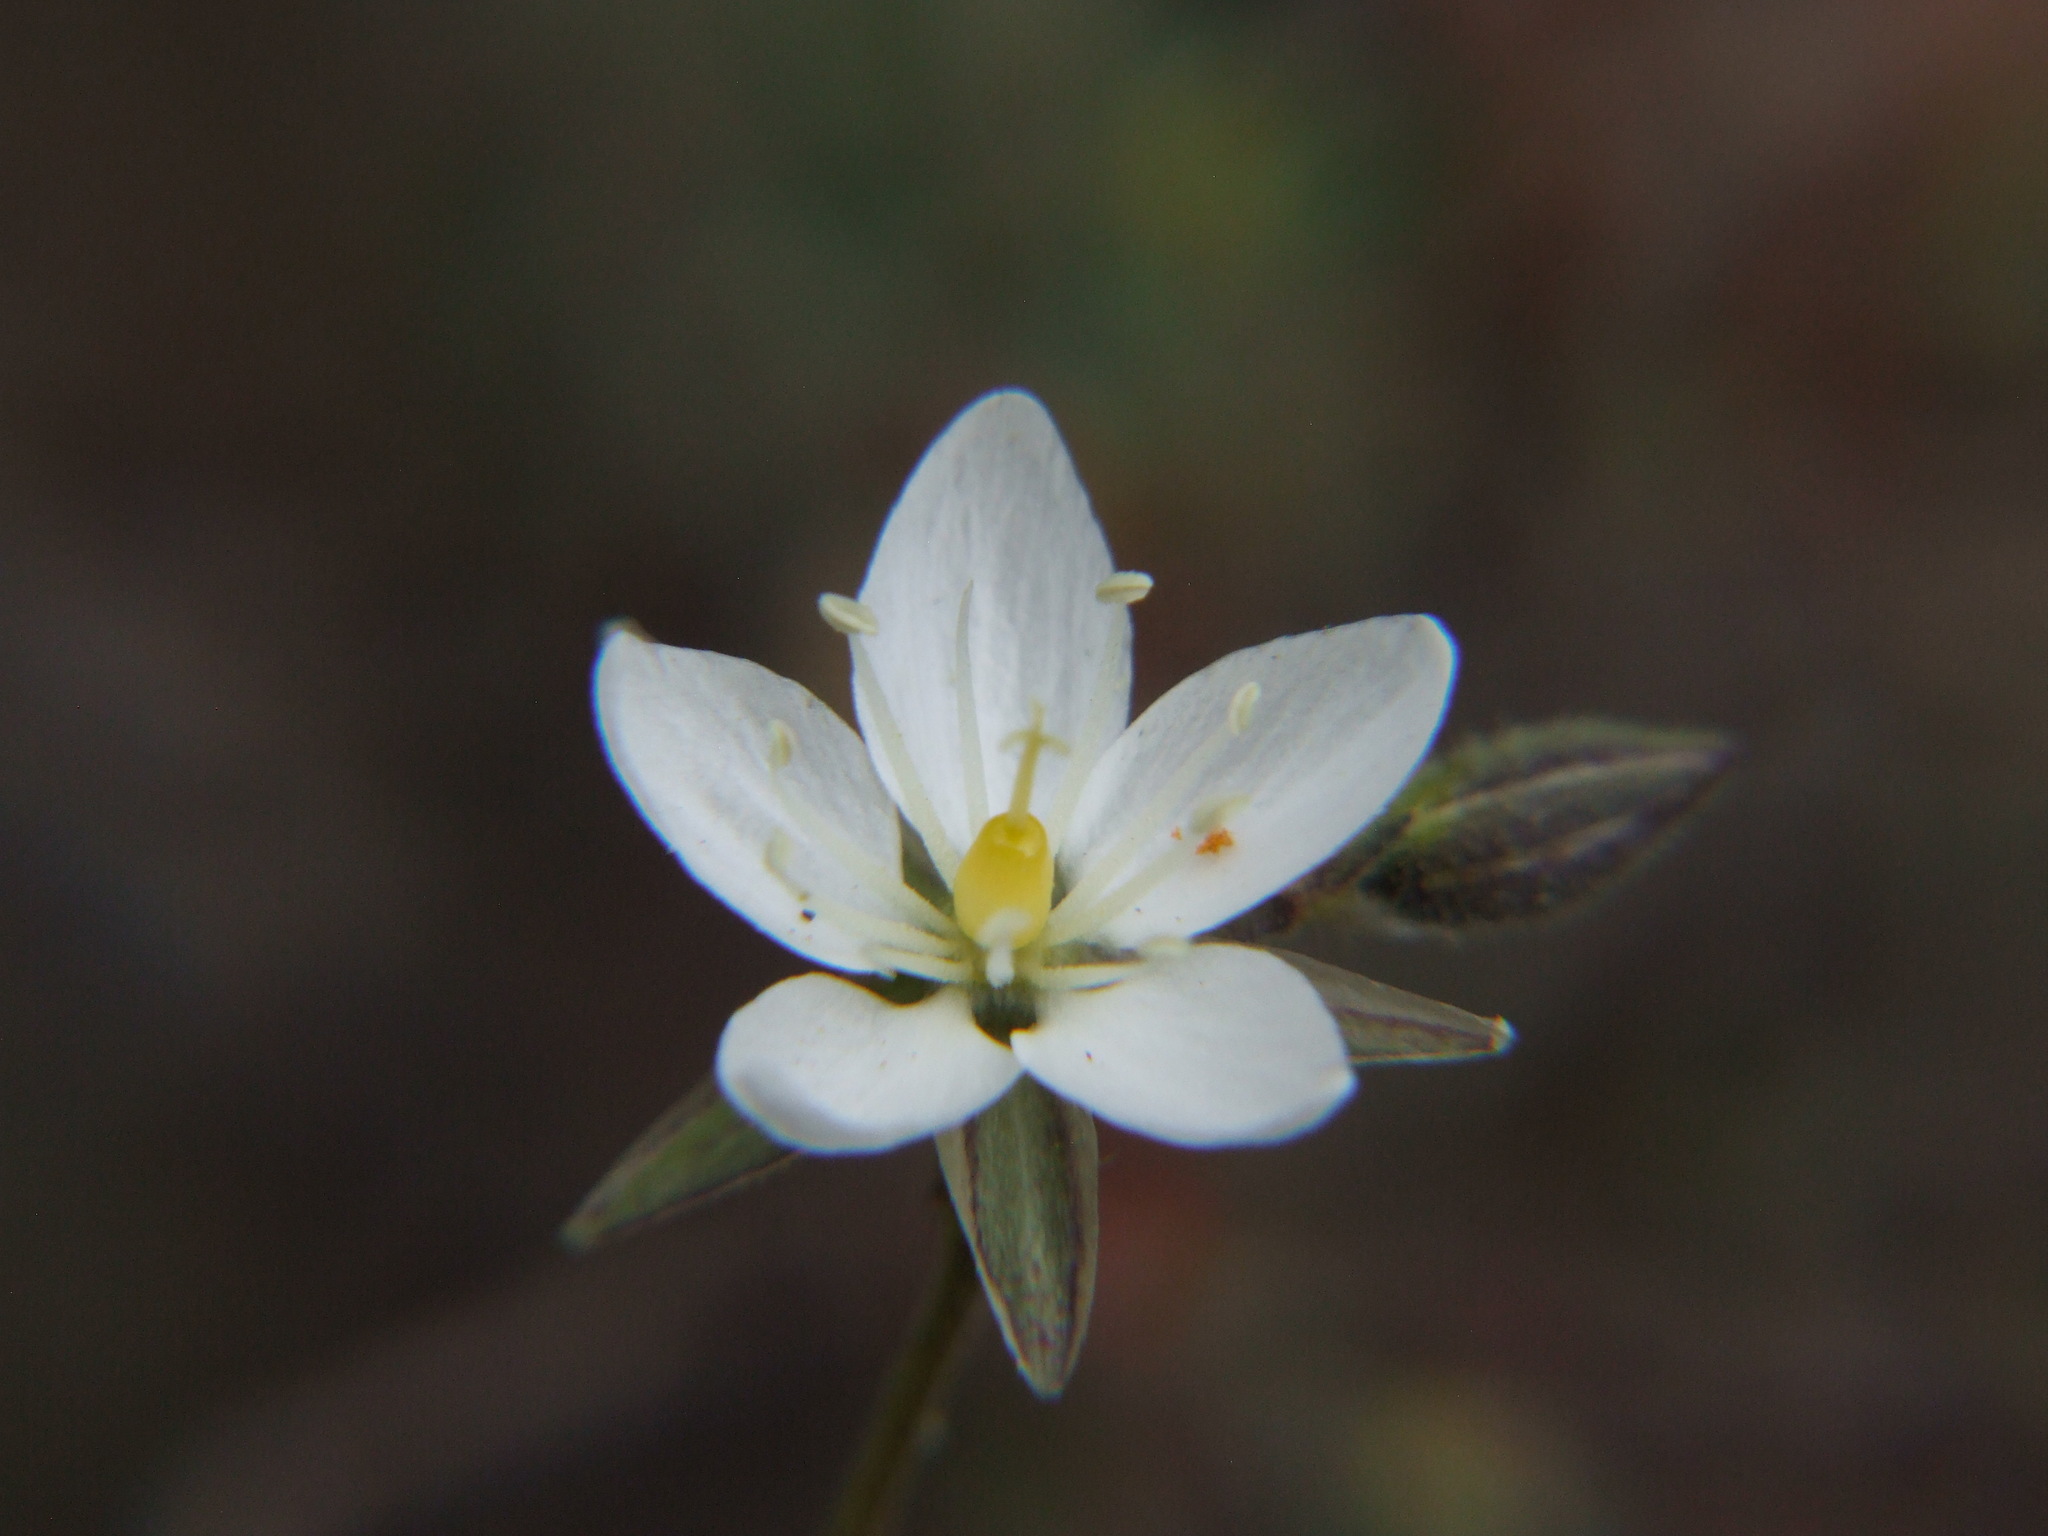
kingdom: Plantae
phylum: Tracheophyta
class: Magnoliopsida
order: Caryophyllales
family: Caryophyllaceae
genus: Spergularia
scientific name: Spergularia fasciculata
